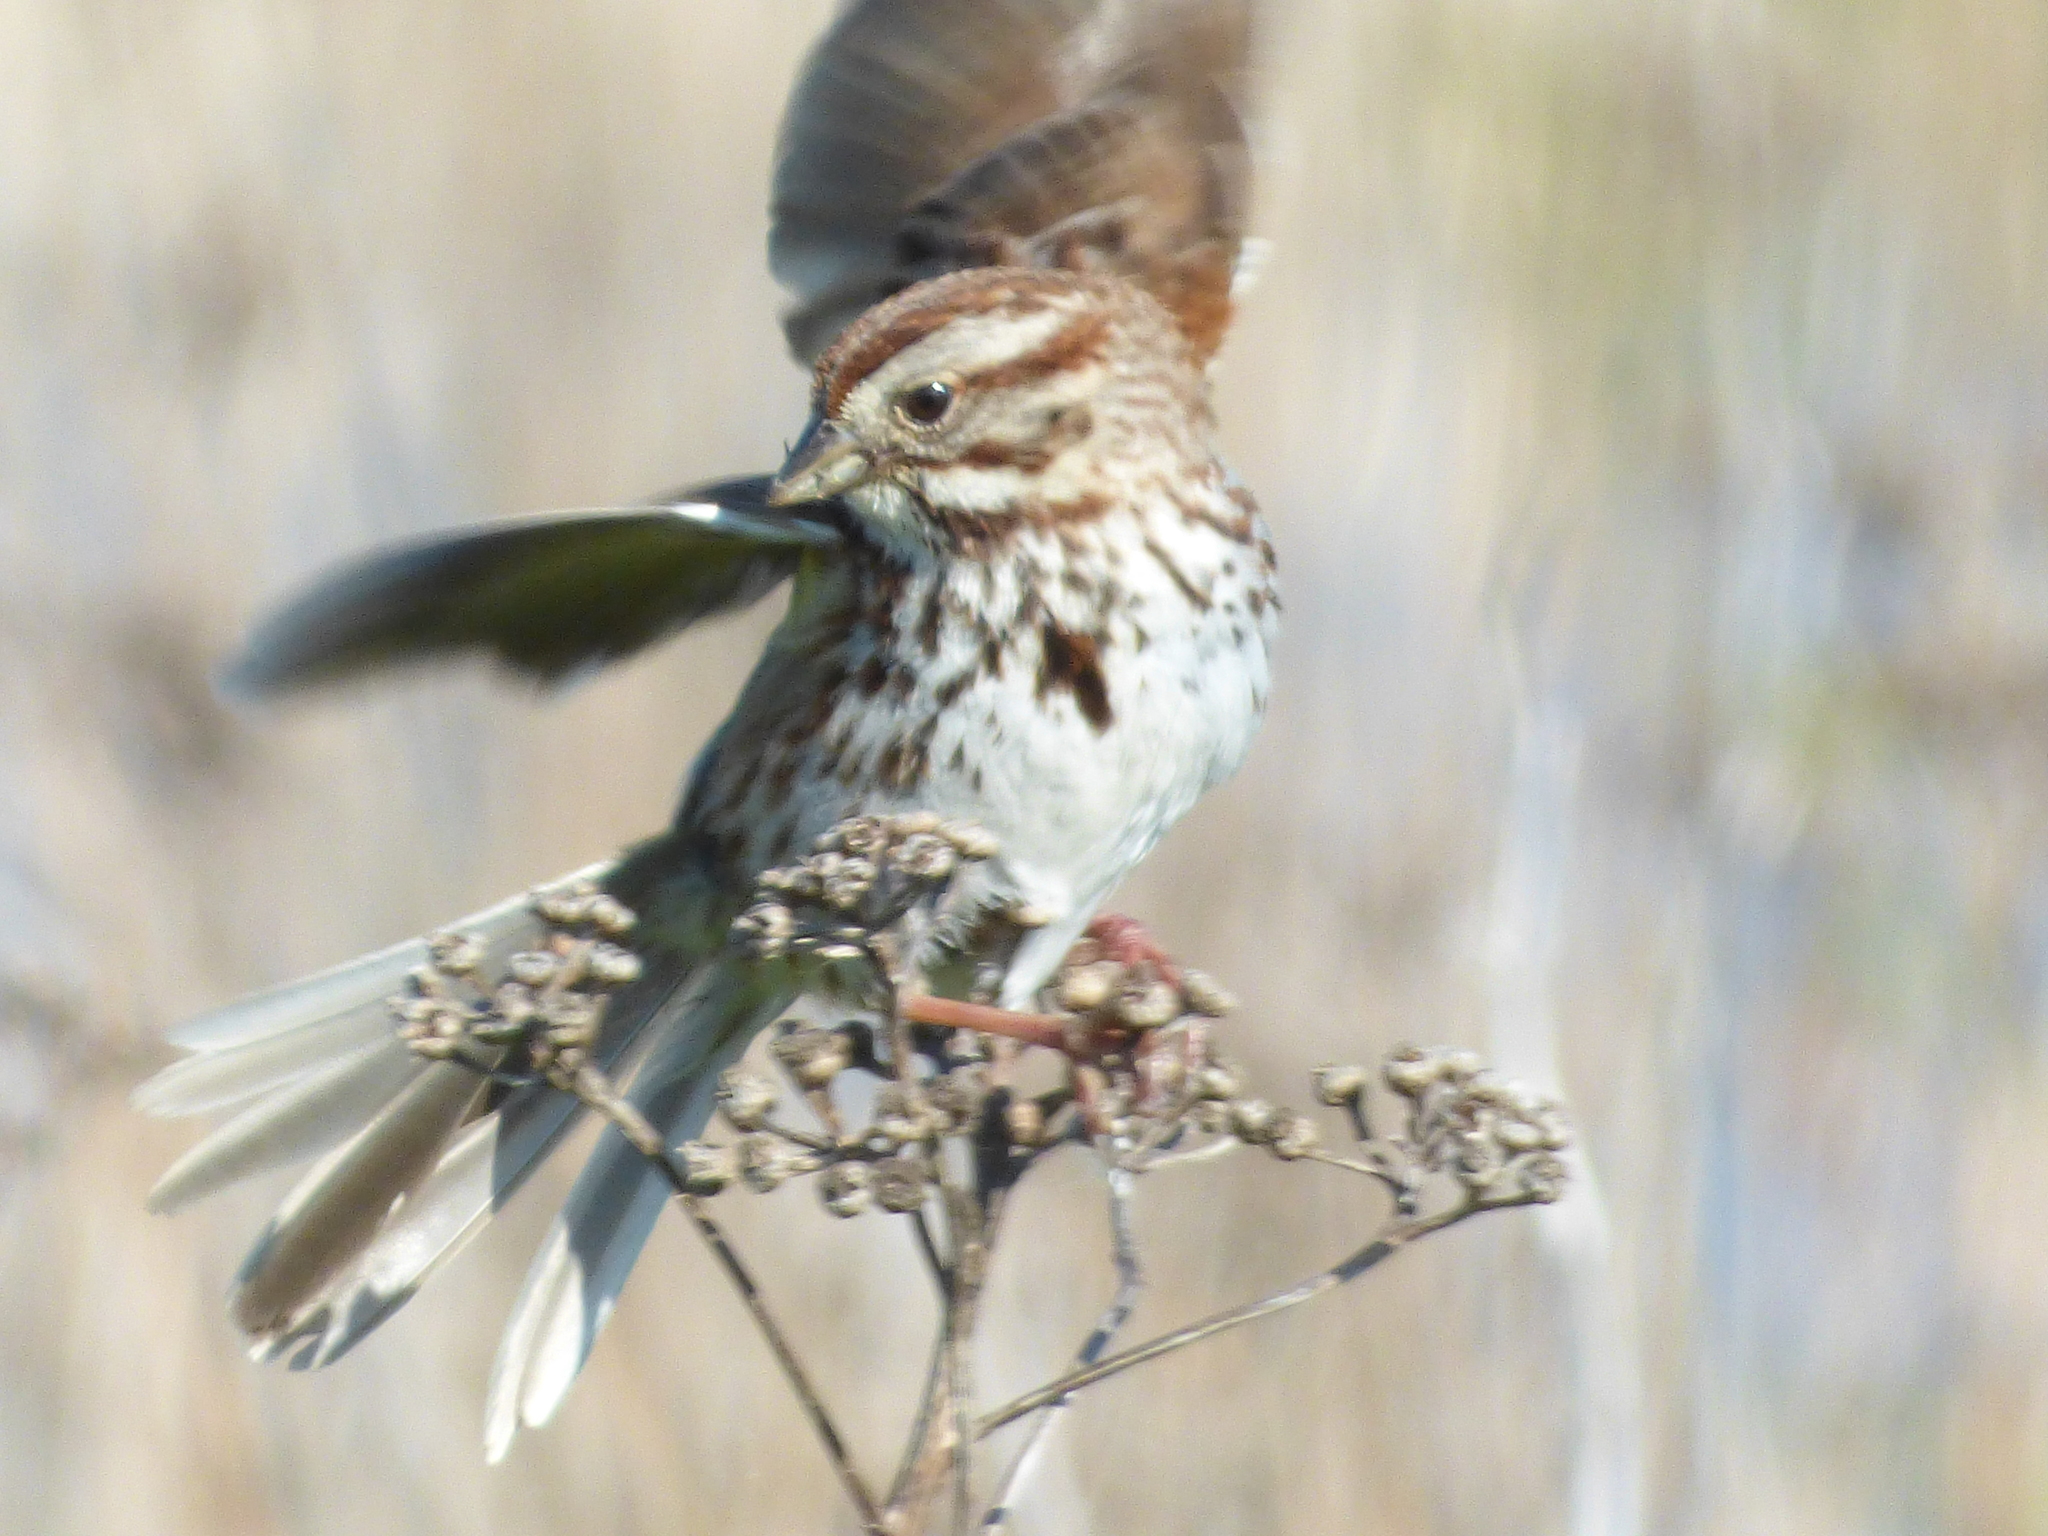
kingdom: Animalia
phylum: Chordata
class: Aves
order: Passeriformes
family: Passerellidae
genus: Melospiza
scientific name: Melospiza melodia
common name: Song sparrow
